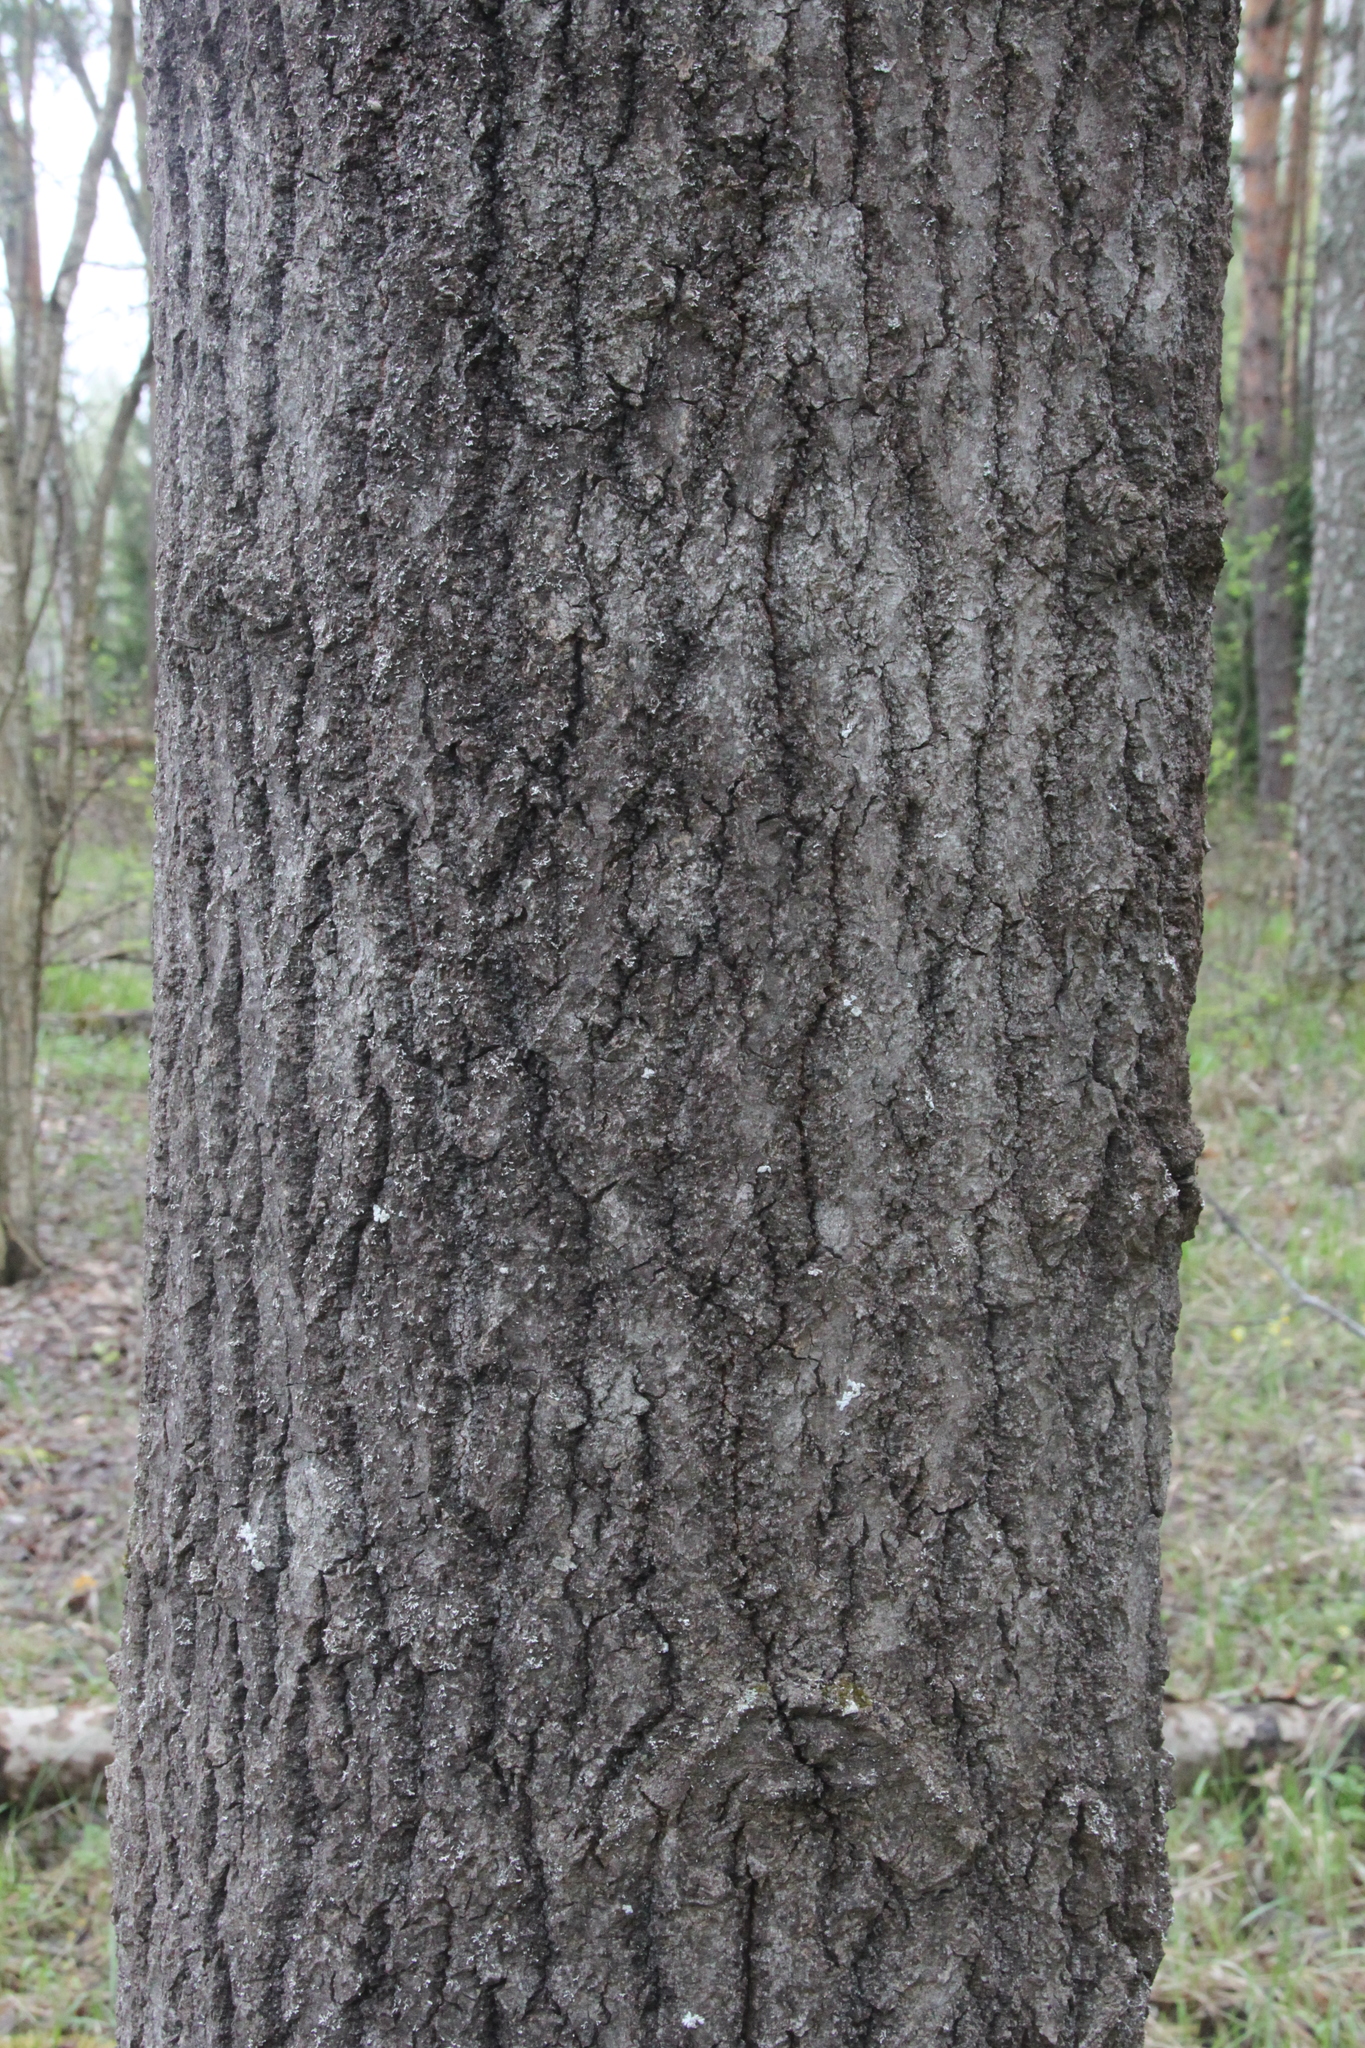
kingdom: Plantae
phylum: Tracheophyta
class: Magnoliopsida
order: Malpighiales
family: Salicaceae
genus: Populus
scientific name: Populus tremula
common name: European aspen
